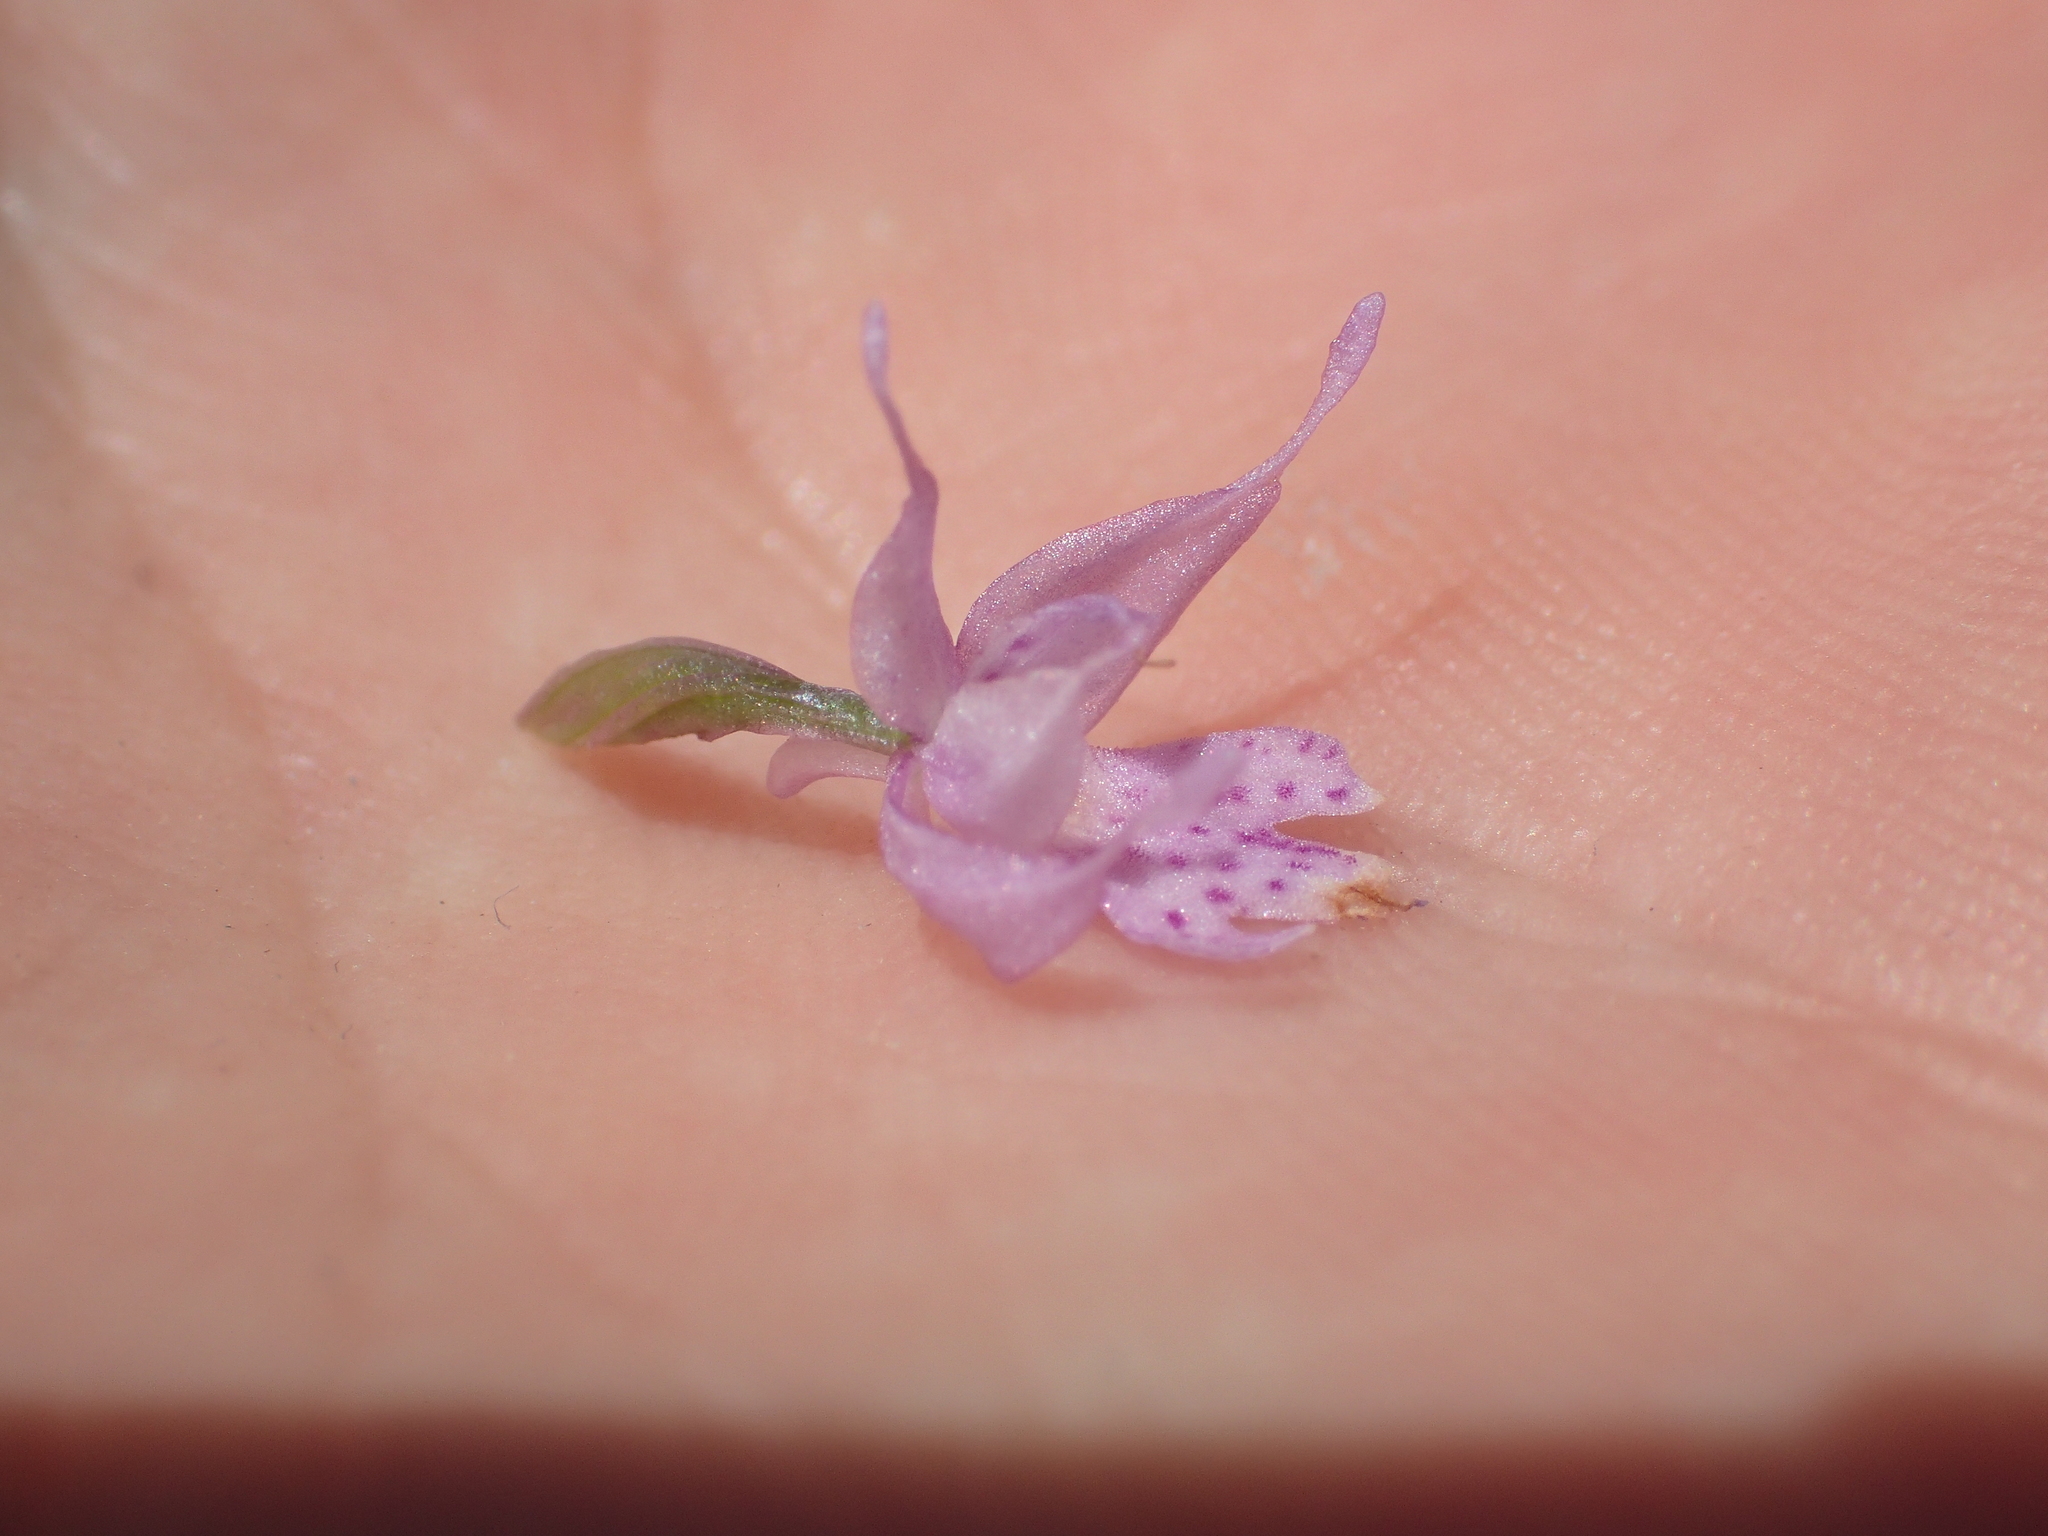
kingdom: Plantae
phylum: Tracheophyta
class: Liliopsida
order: Asparagales
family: Orchidaceae
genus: Traunsteinera
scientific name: Traunsteinera globosa
